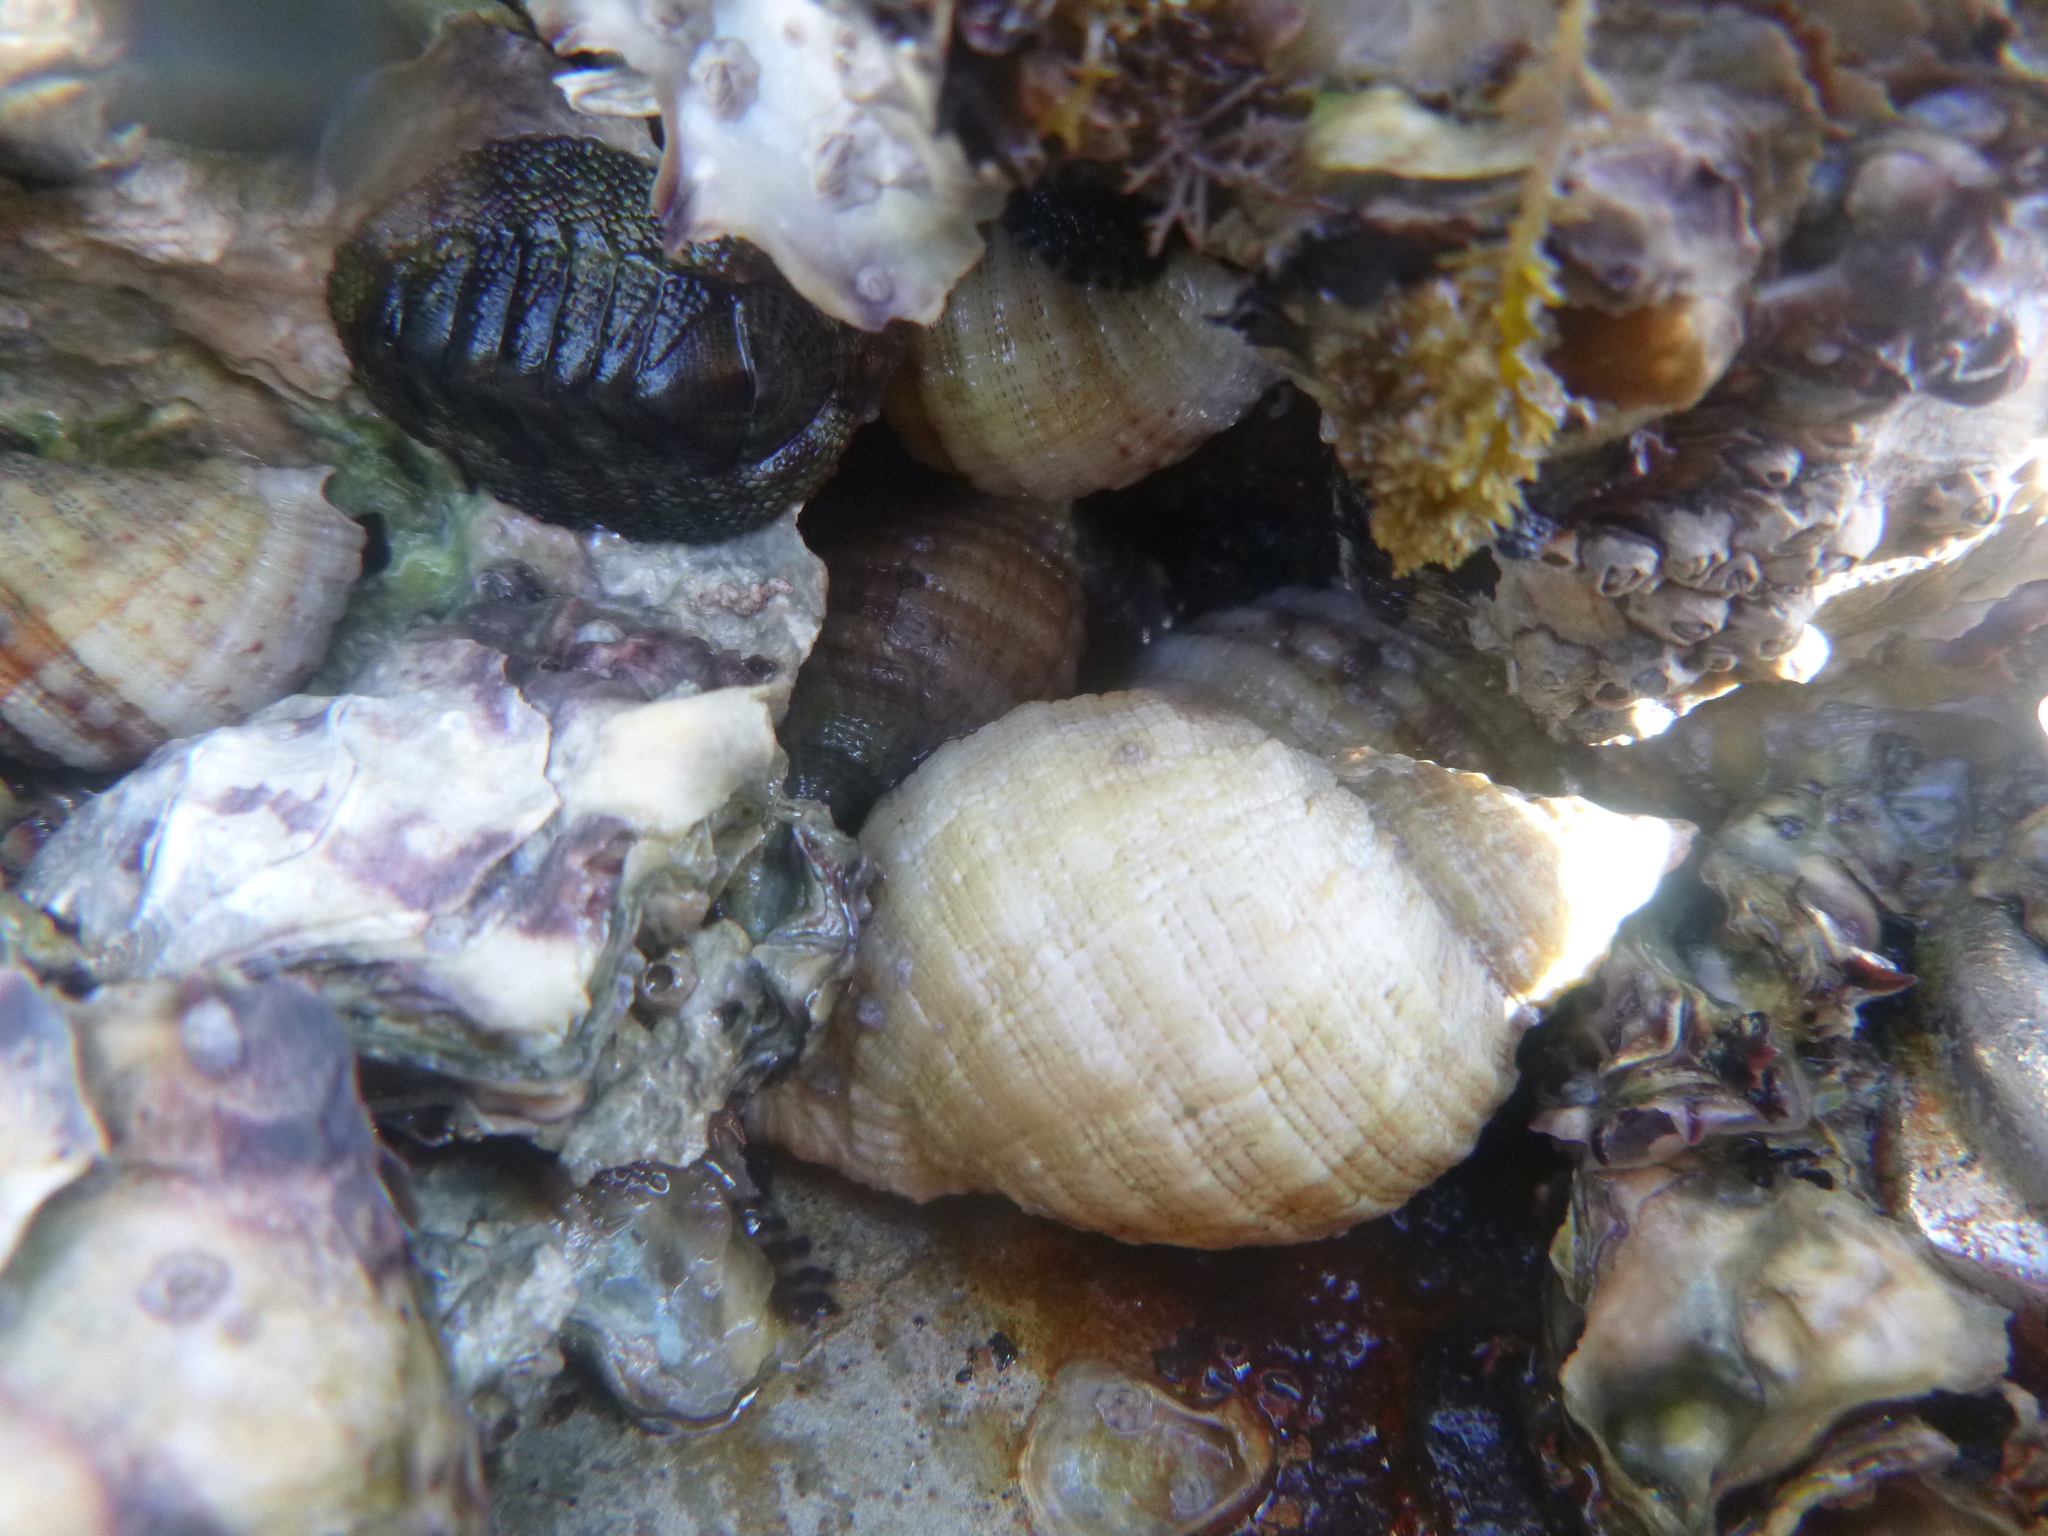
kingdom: Animalia
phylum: Mollusca
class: Gastropoda
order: Neogastropoda
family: Muricidae
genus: Dicathais
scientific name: Dicathais orbita
